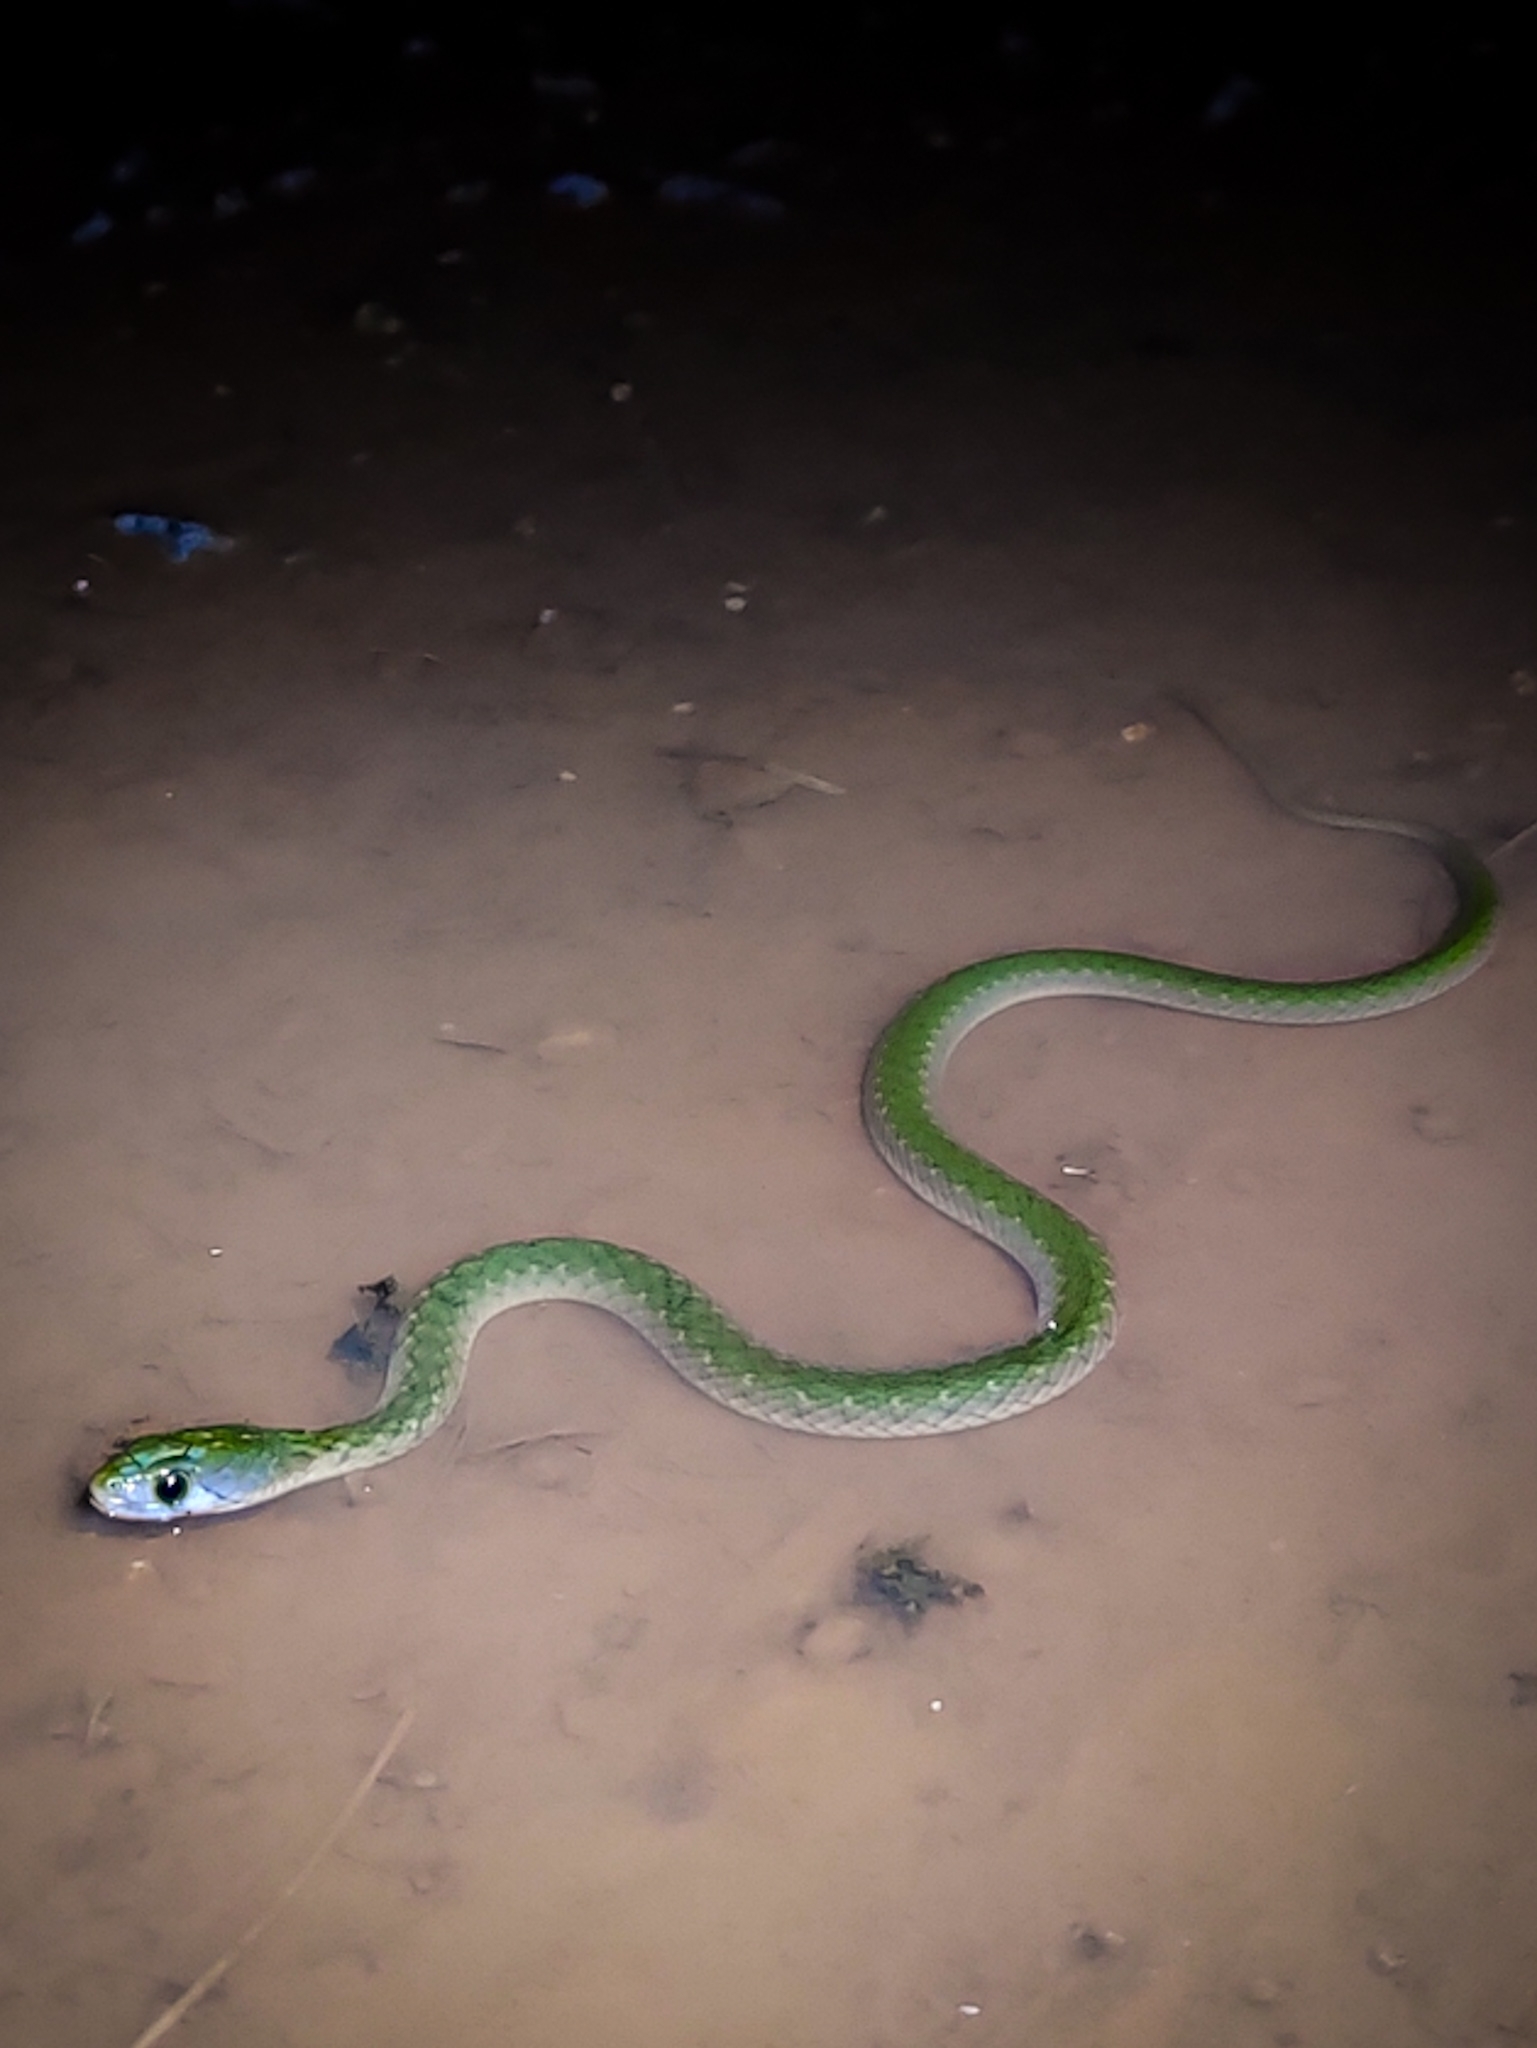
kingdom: Animalia
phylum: Chordata
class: Squamata
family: Colubridae
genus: Fowlea
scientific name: Fowlea piscator
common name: Asiatic water snake
